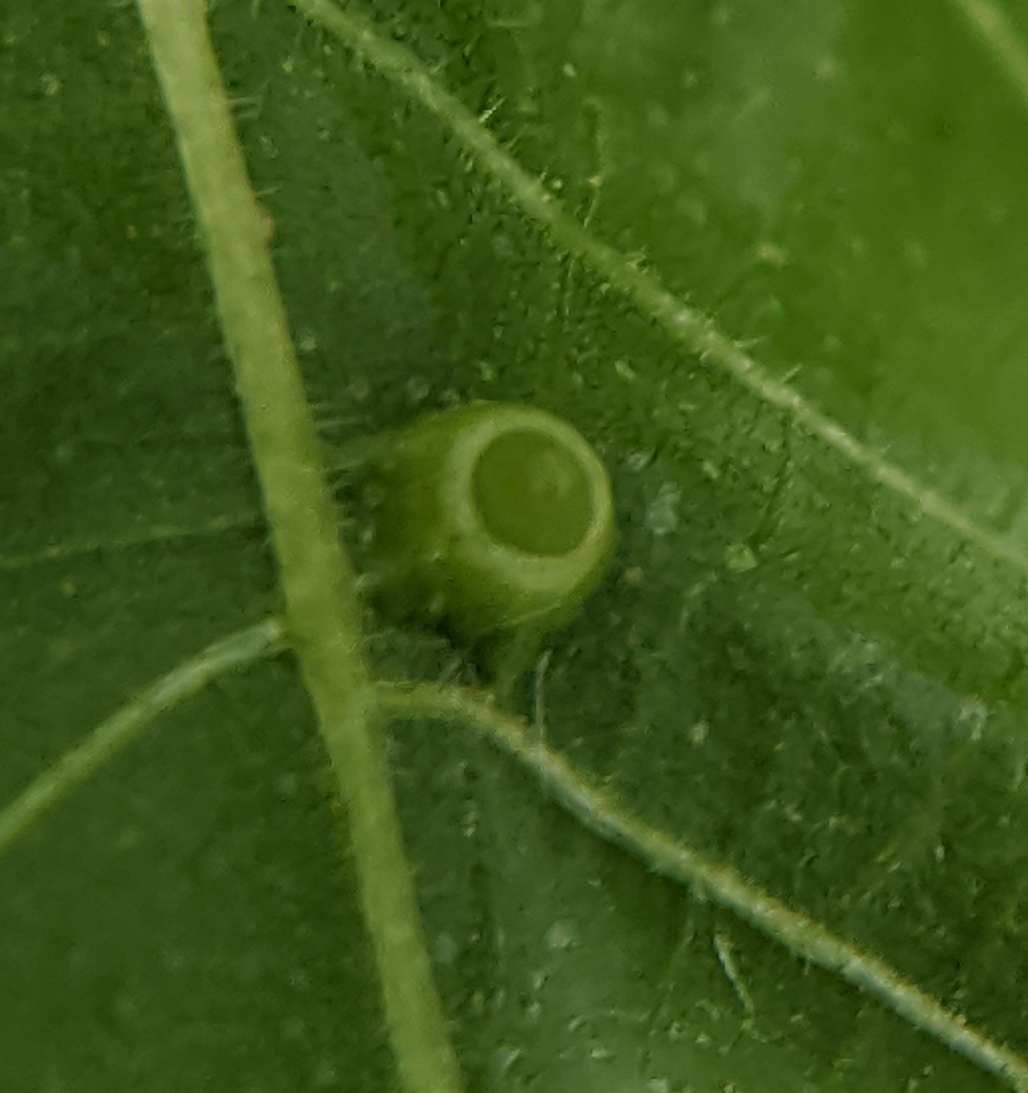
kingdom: Animalia
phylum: Arthropoda
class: Insecta
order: Diptera
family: Cecidomyiidae
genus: Caryomyia
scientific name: Caryomyia tubicola
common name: Hickory bullet gall midge
